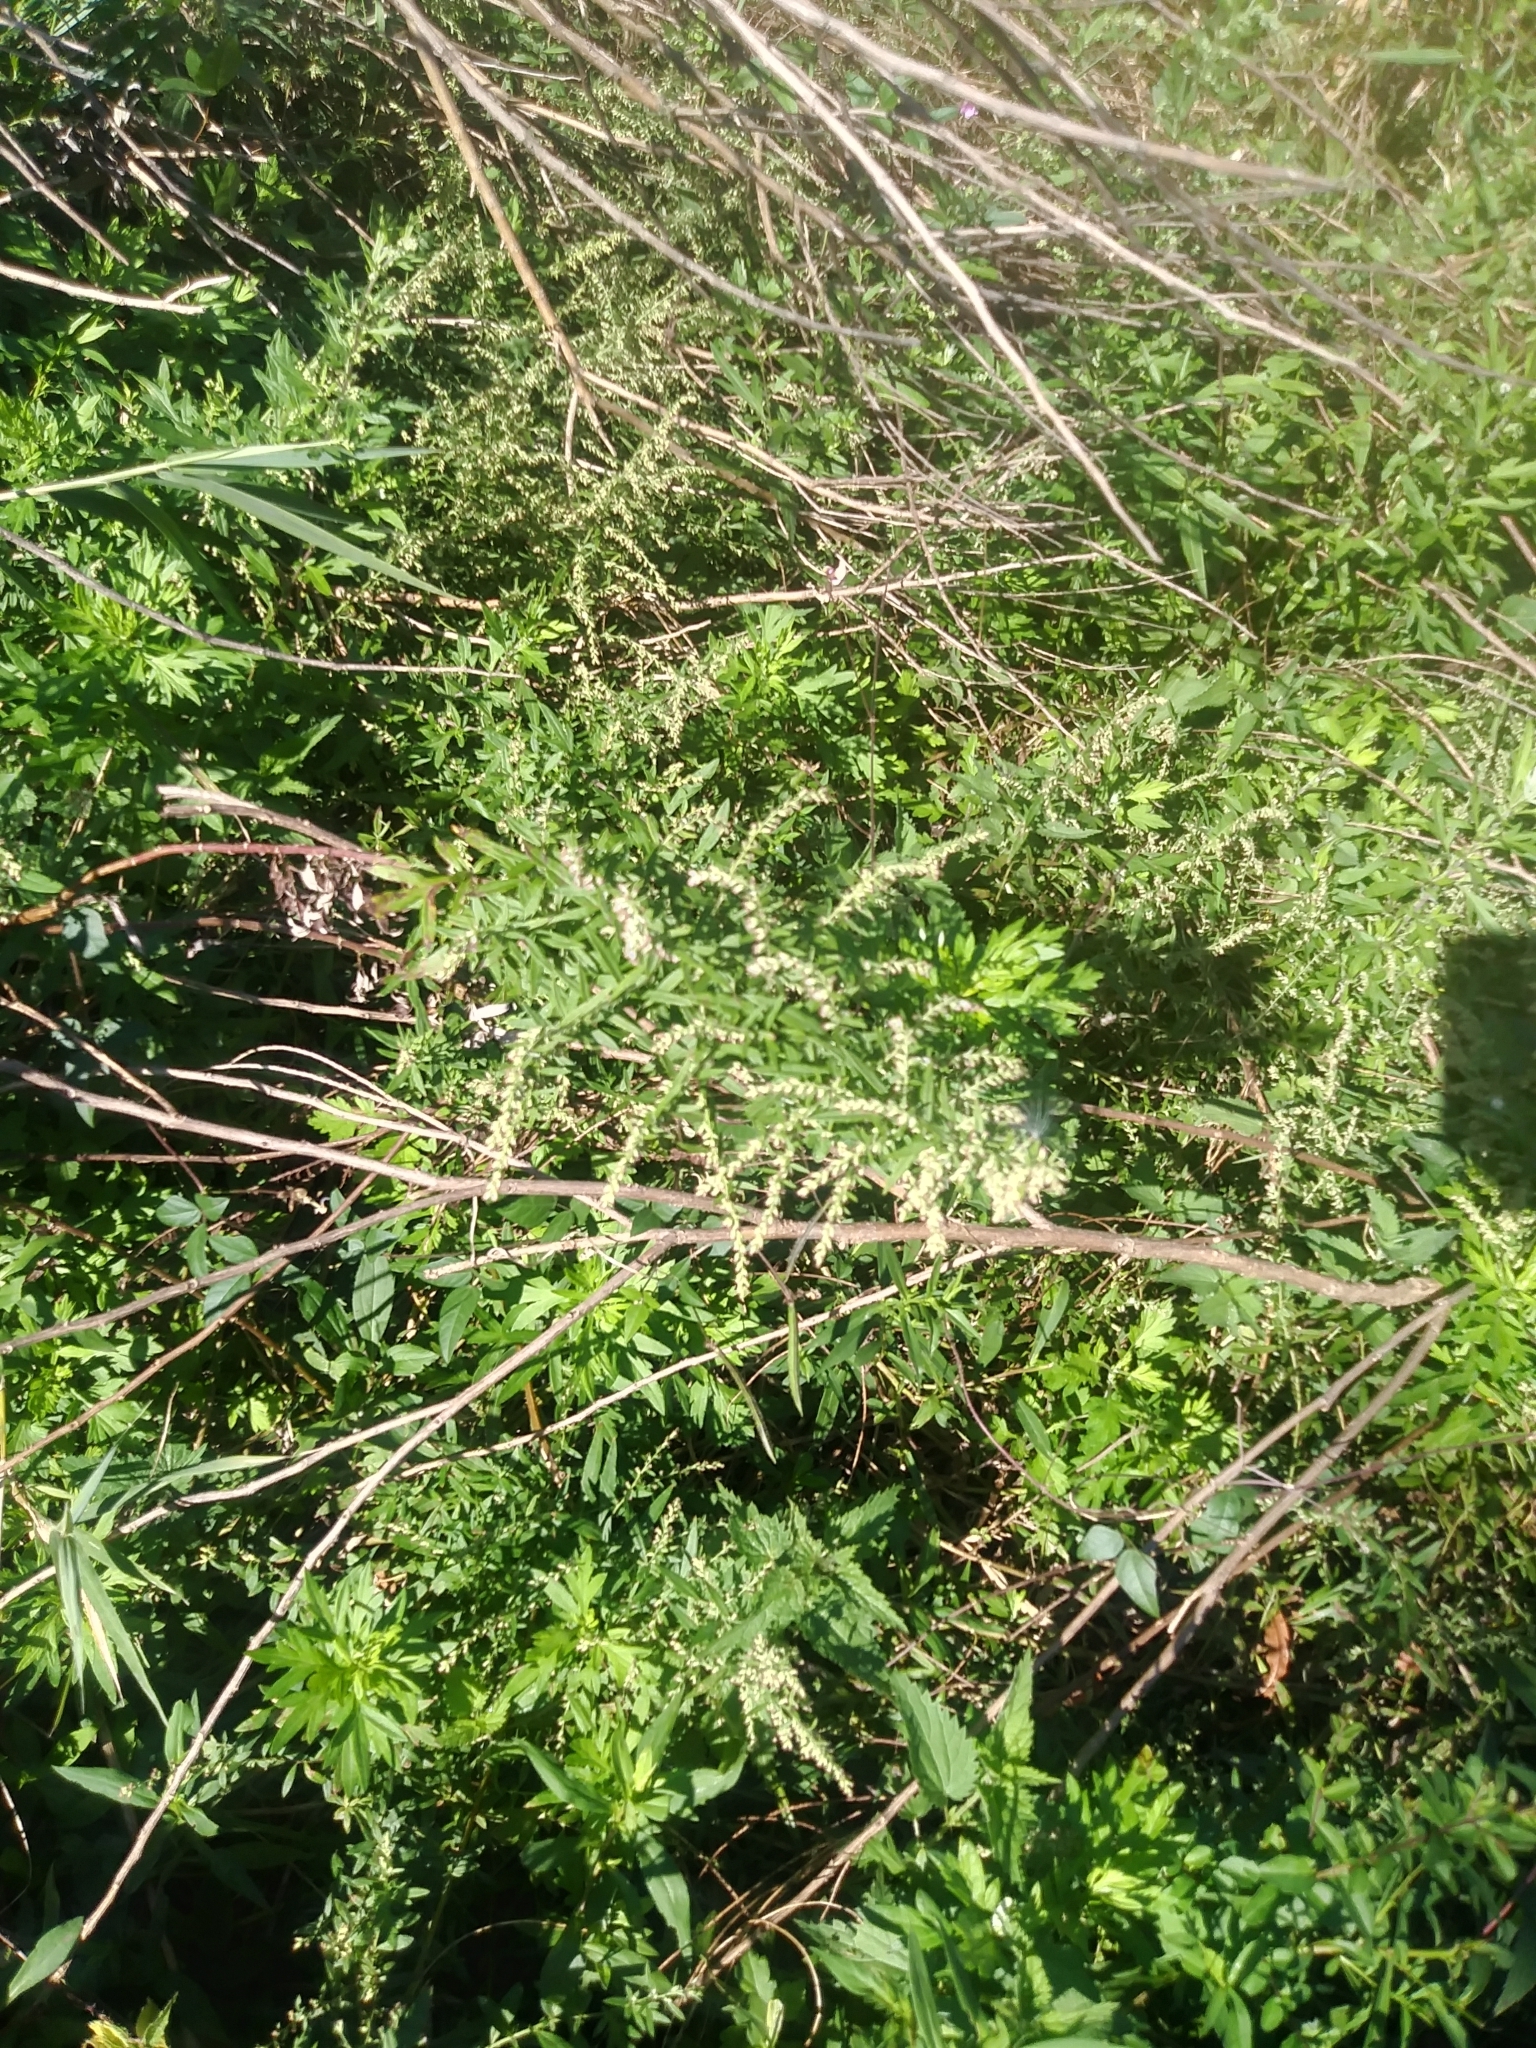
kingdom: Plantae
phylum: Tracheophyta
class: Magnoliopsida
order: Asterales
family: Asteraceae
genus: Artemisia
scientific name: Artemisia vulgaris
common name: Mugwort
